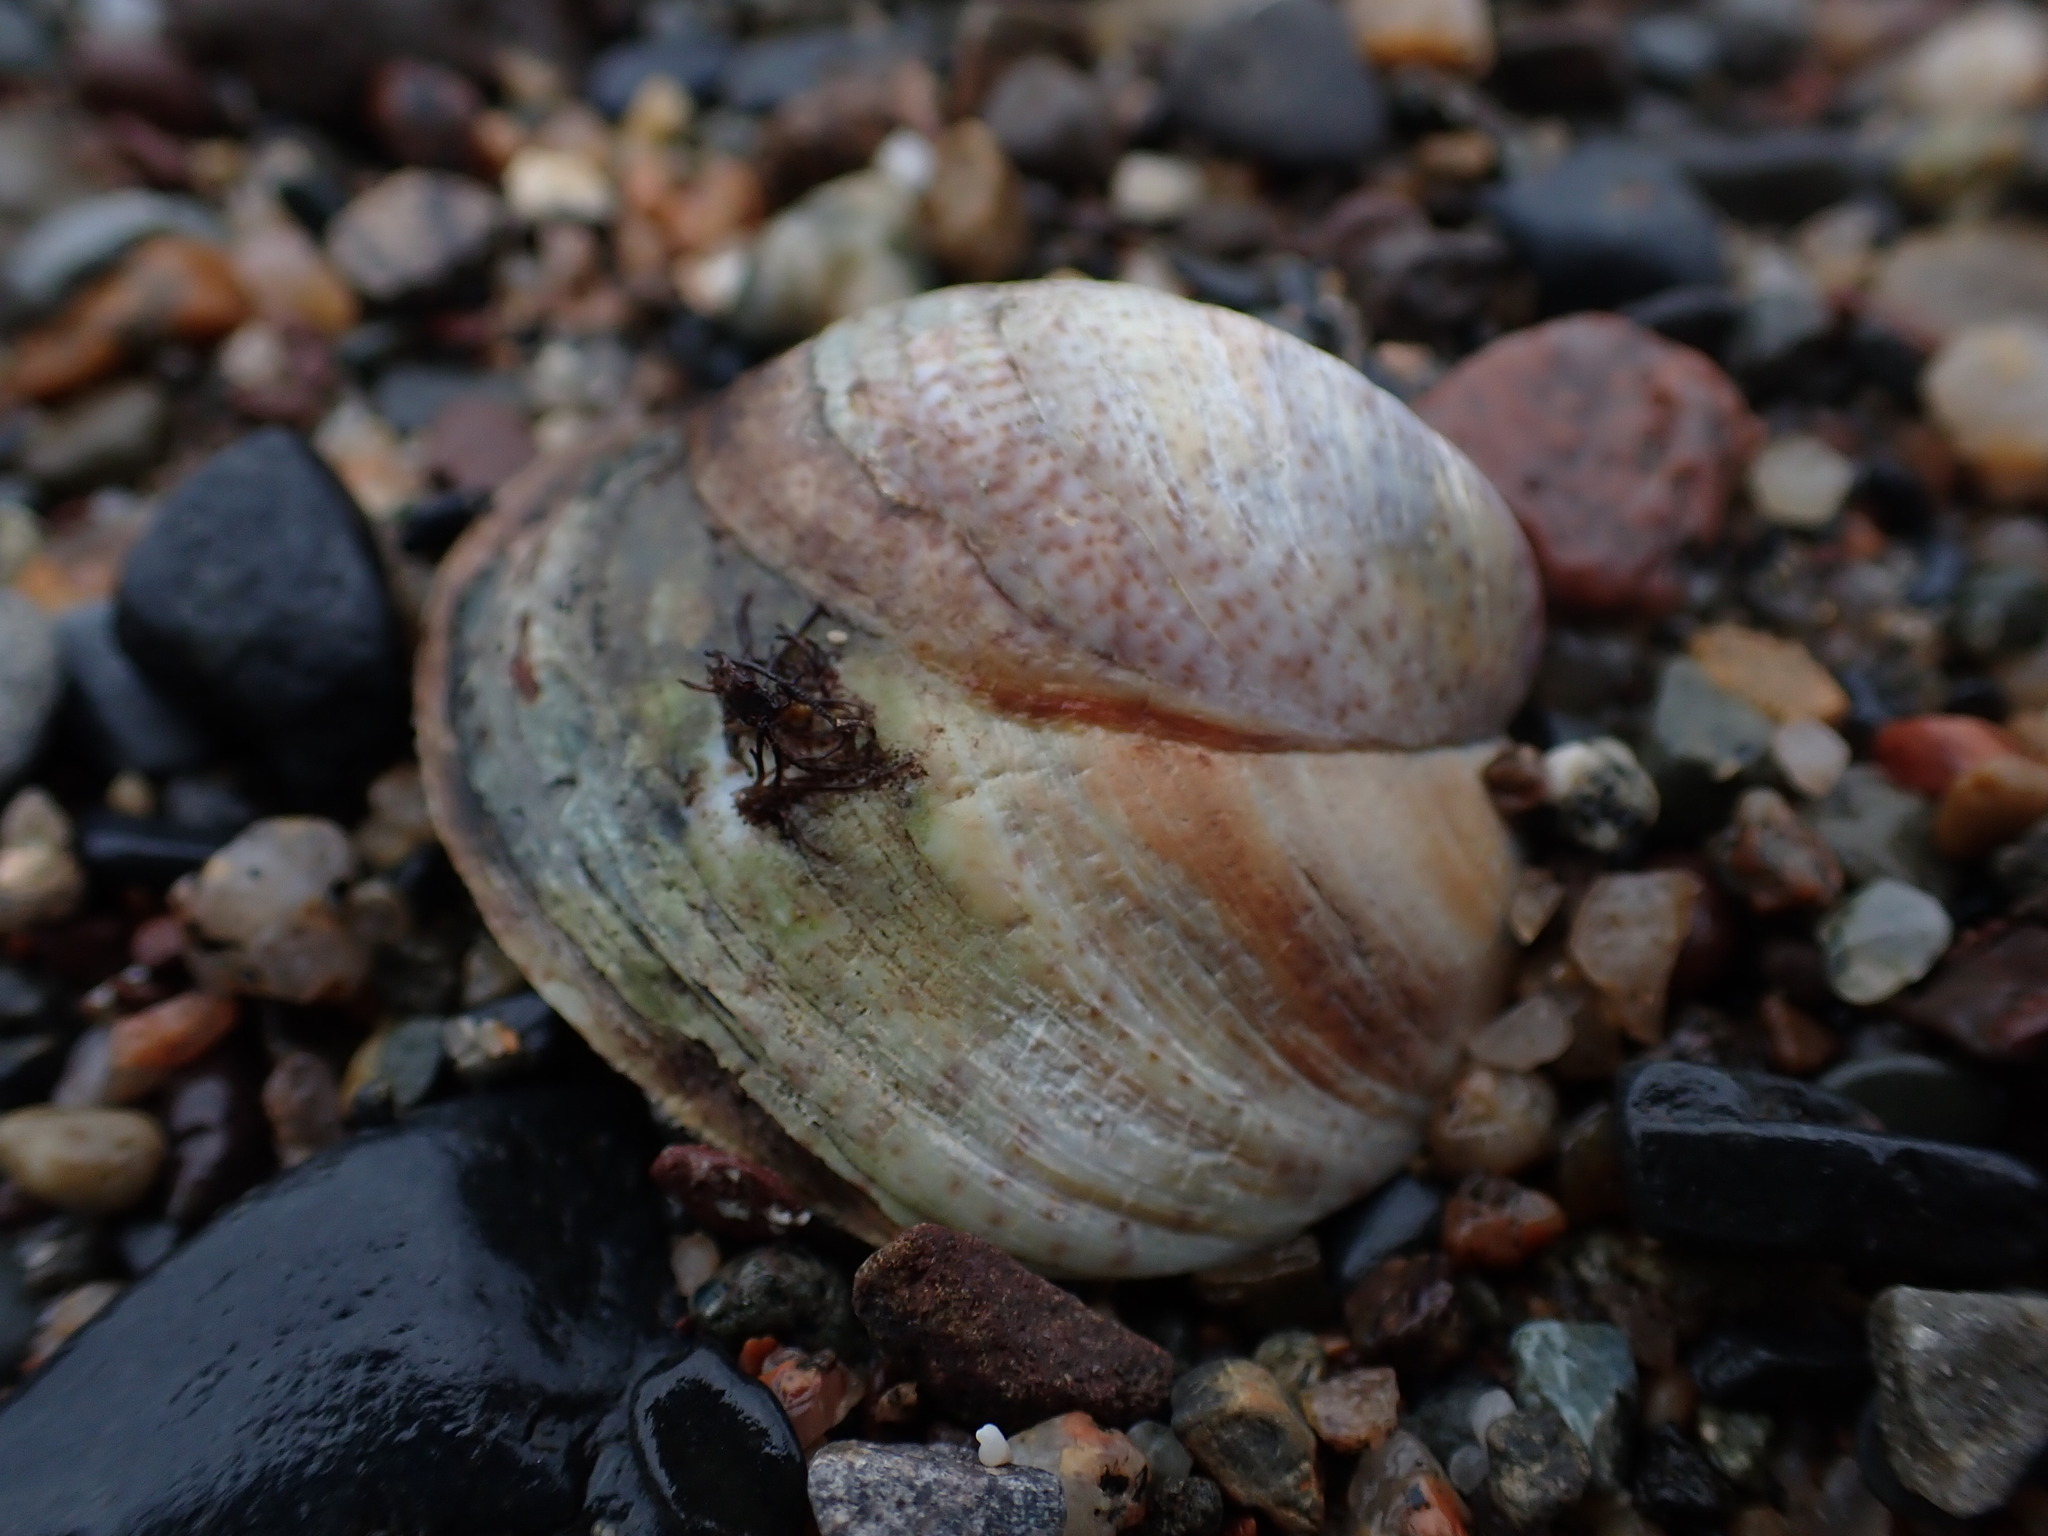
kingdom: Animalia
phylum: Mollusca
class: Gastropoda
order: Littorinimorpha
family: Calyptraeidae
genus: Crepidula
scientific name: Crepidula fornicata
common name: Slipper limpet
